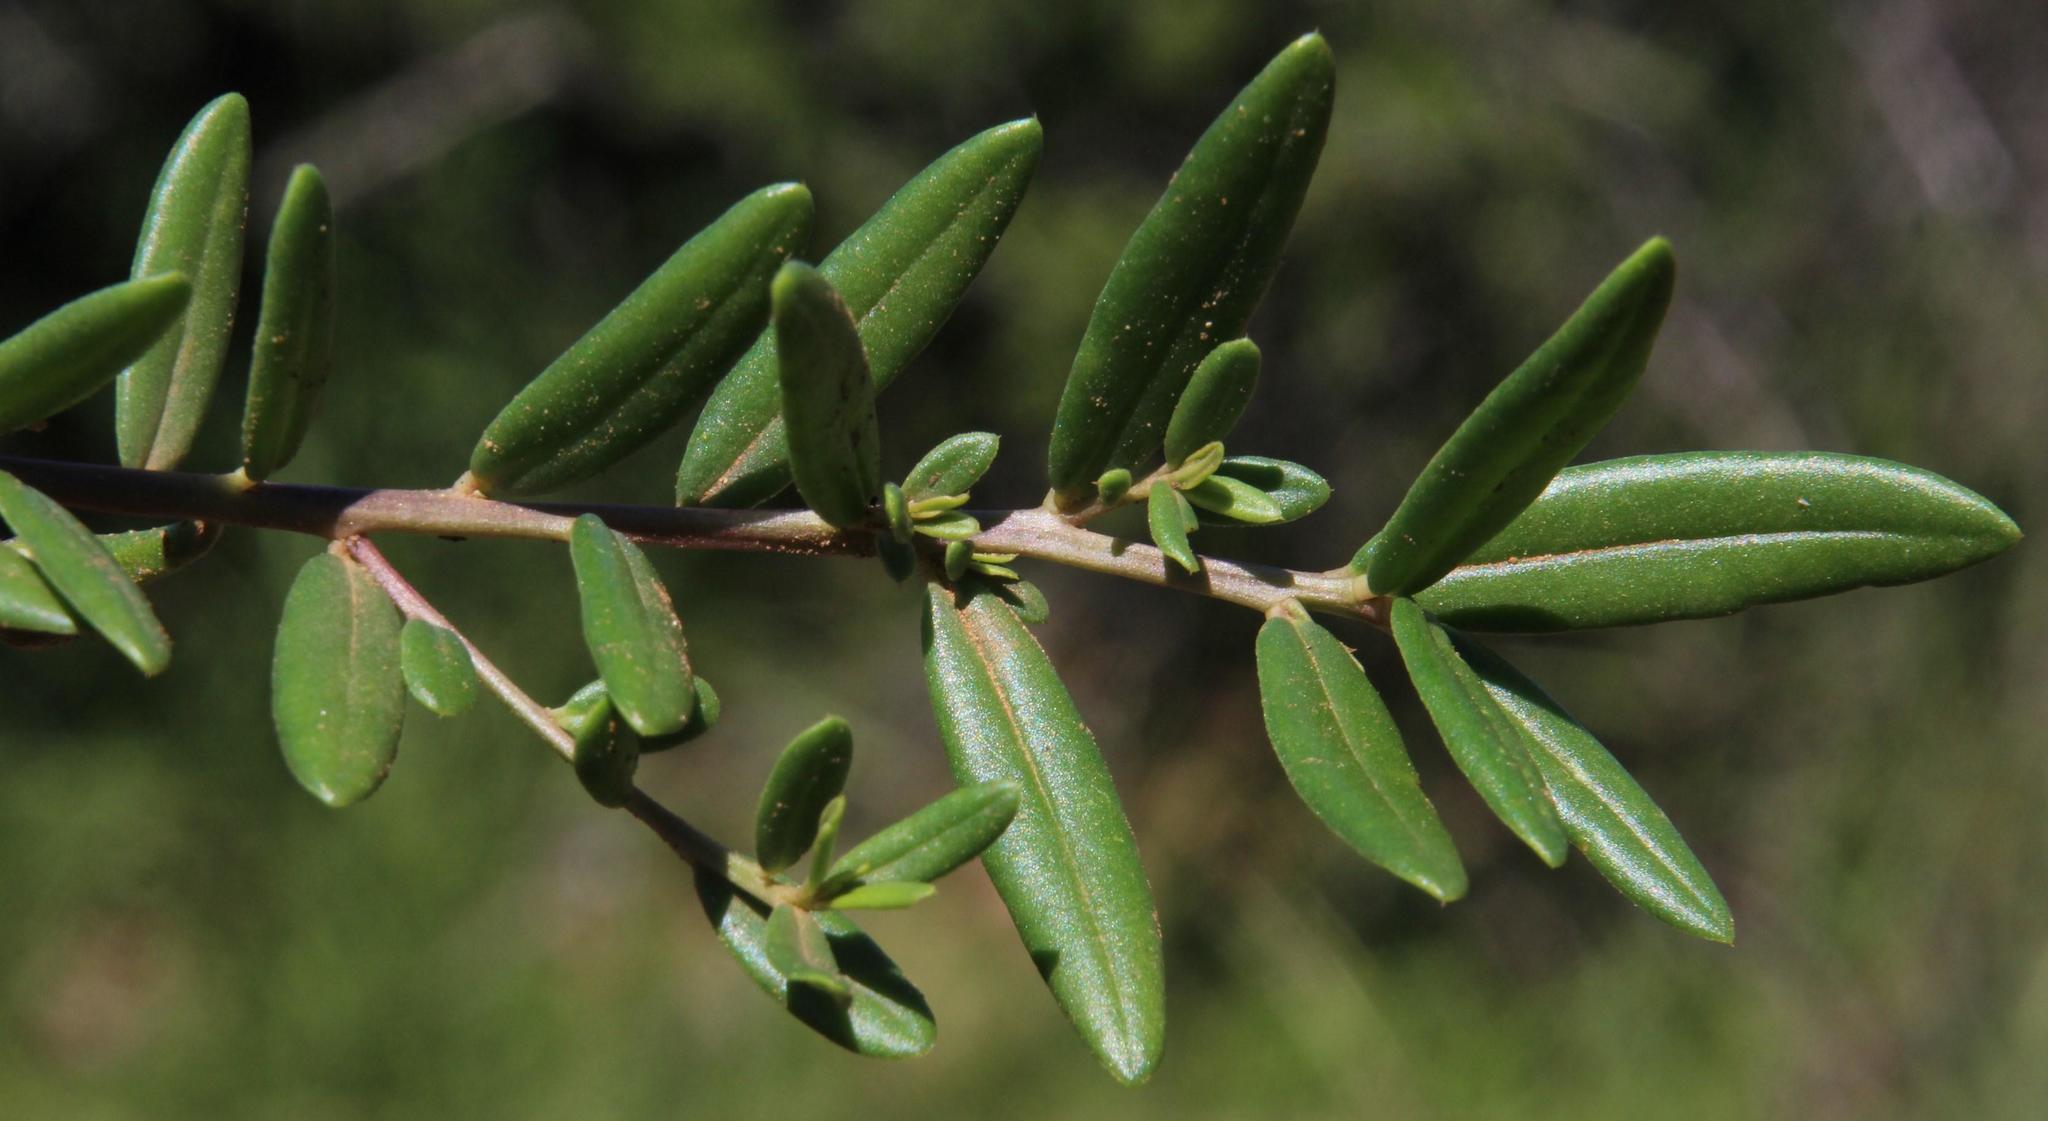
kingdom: Plantae
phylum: Tracheophyta
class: Magnoliopsida
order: Caryophyllales
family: Talinaceae
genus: Talinum
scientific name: Talinum caffrum
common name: Flameflower
